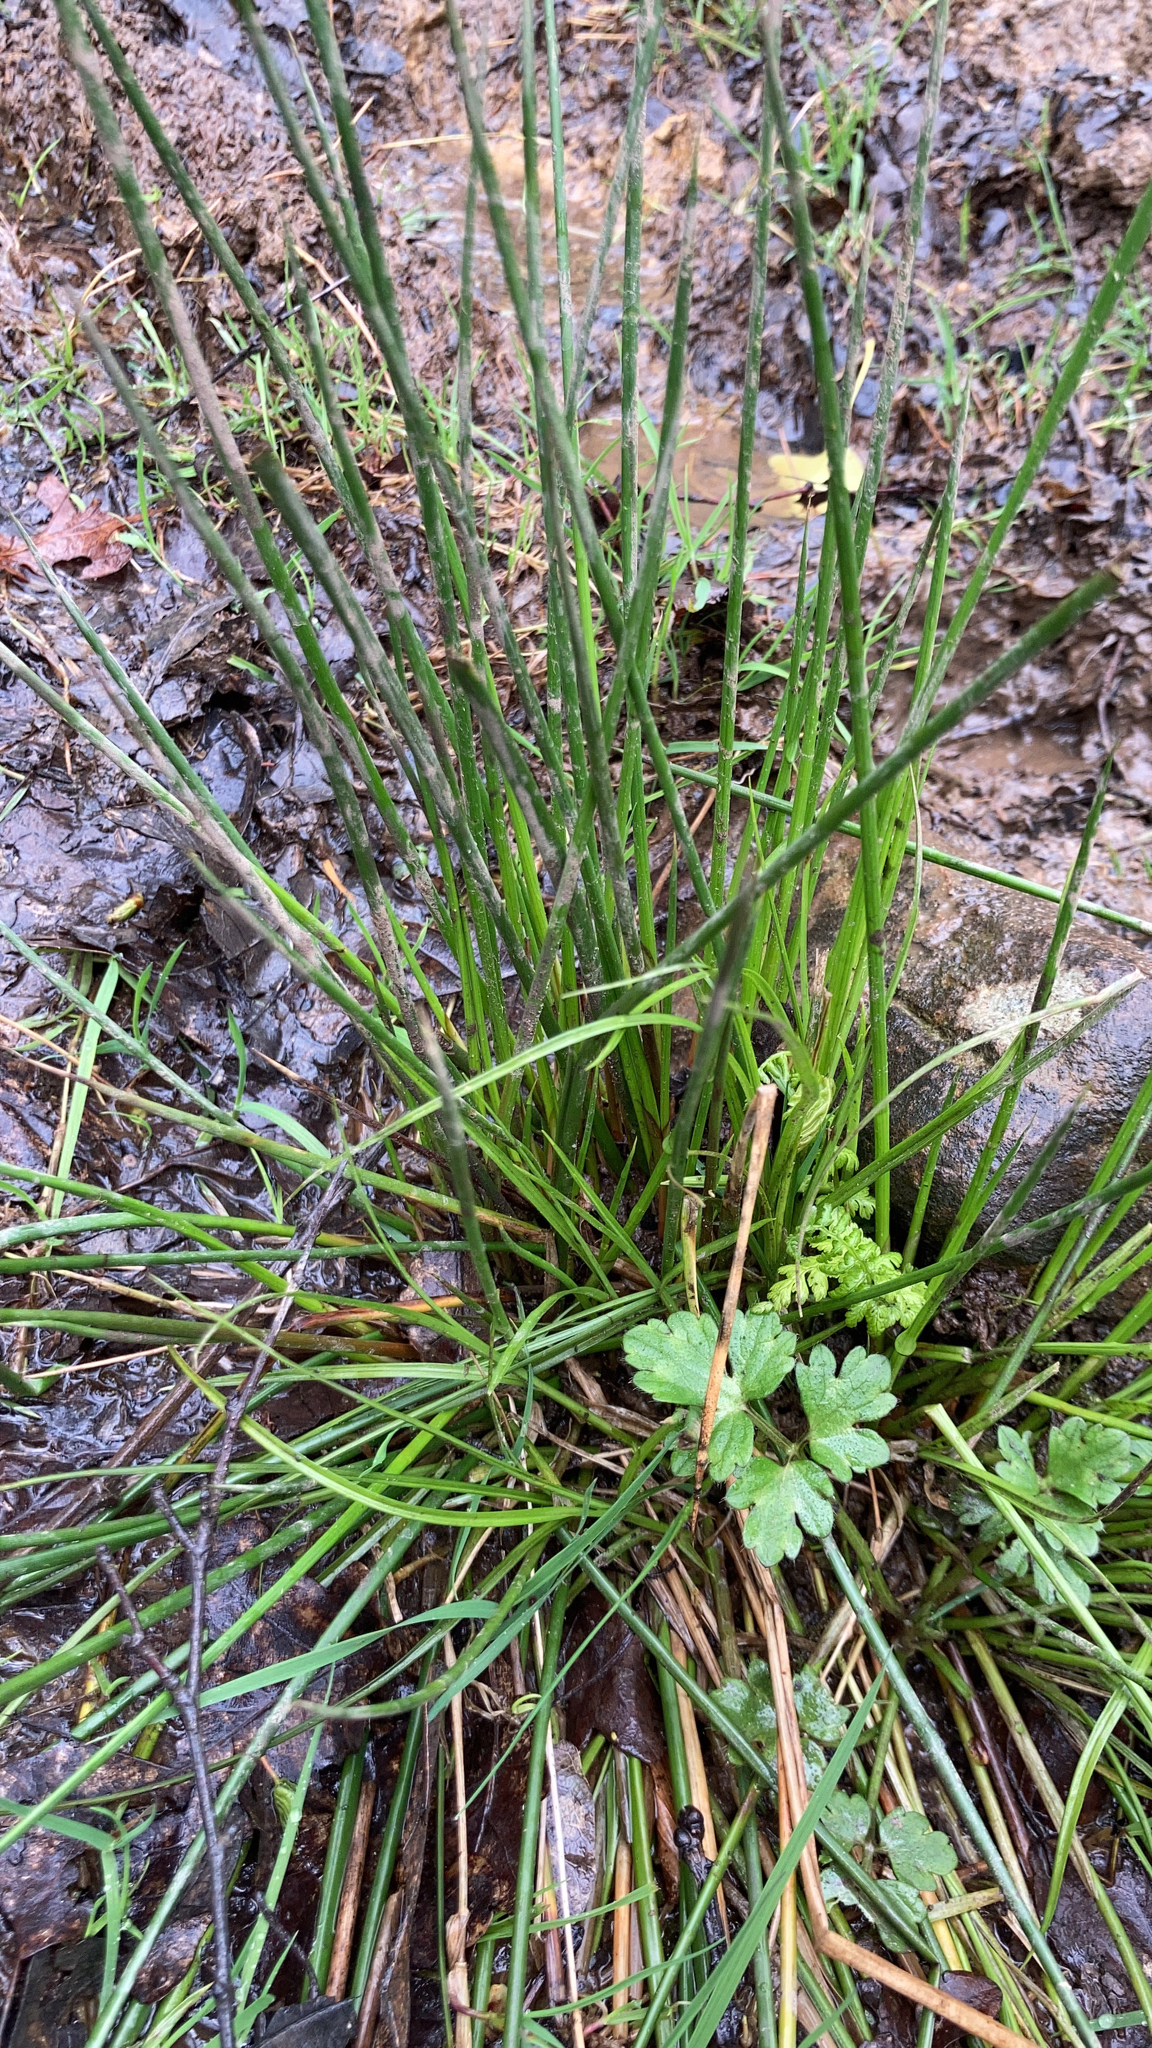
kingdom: Plantae
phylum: Tracheophyta
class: Liliopsida
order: Poales
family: Juncaceae
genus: Juncus
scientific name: Juncus effusus
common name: Soft rush
